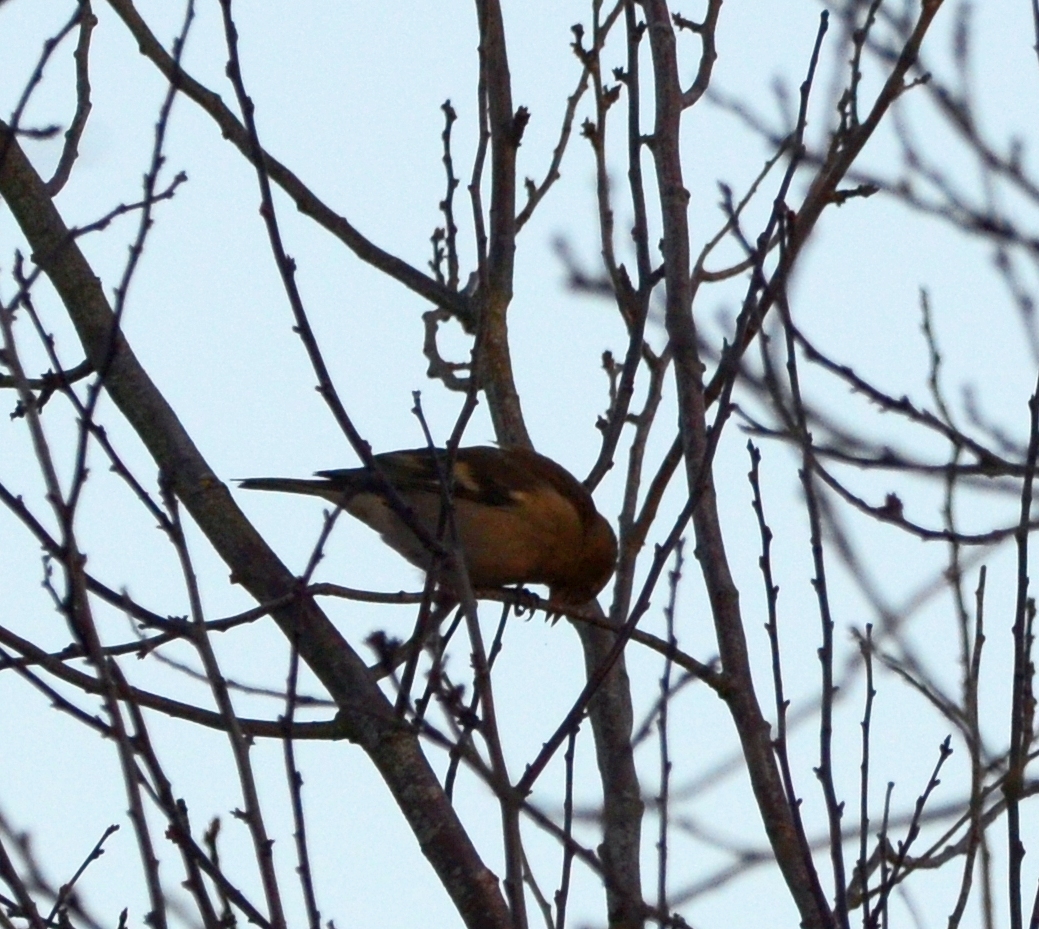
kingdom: Animalia
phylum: Chordata
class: Aves
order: Passeriformes
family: Fringillidae
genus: Fringilla
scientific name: Fringilla coelebs
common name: Common chaffinch
